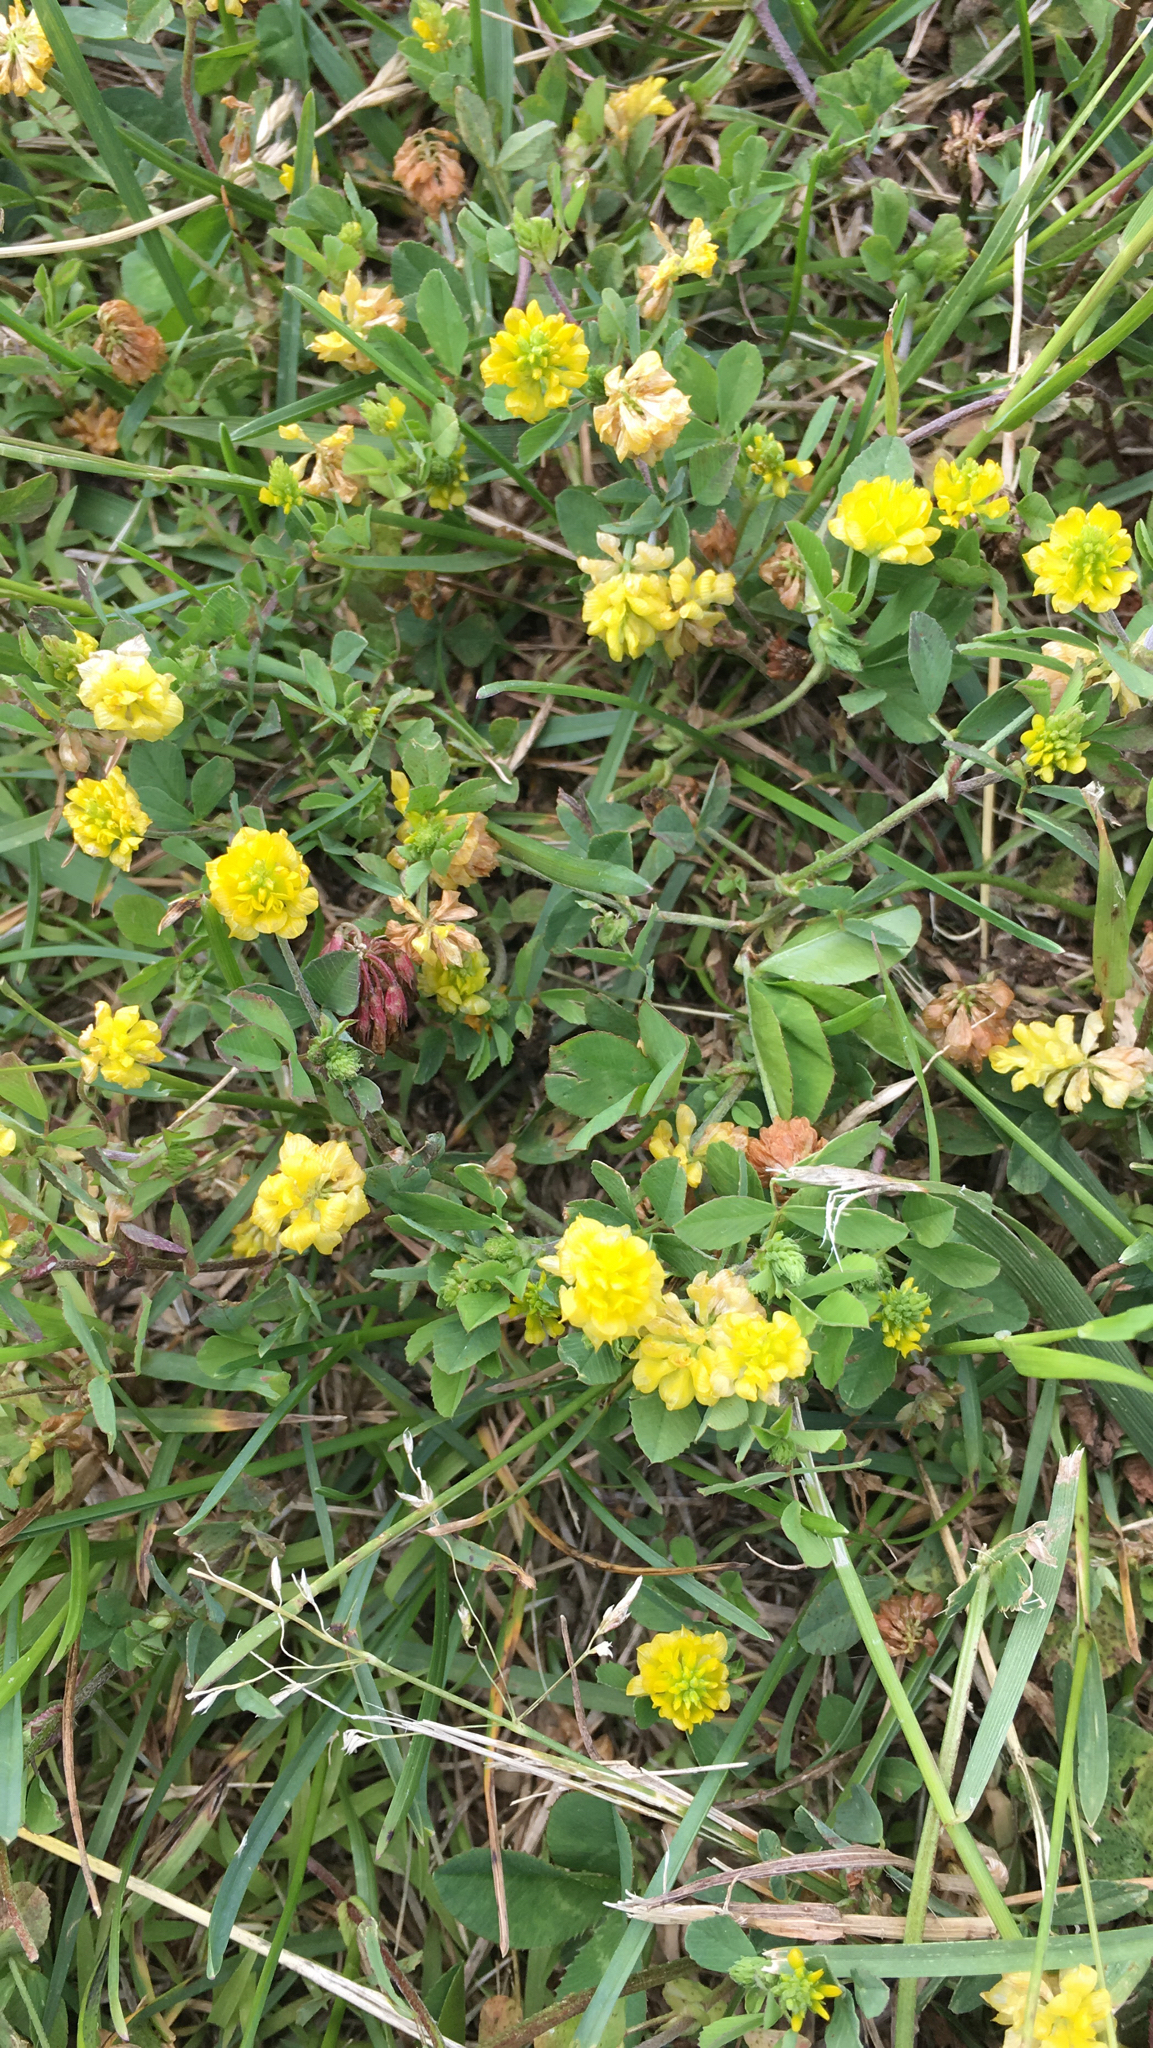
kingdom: Plantae
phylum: Tracheophyta
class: Magnoliopsida
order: Fabales
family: Fabaceae
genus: Trifolium
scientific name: Trifolium campestre
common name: Field clover
